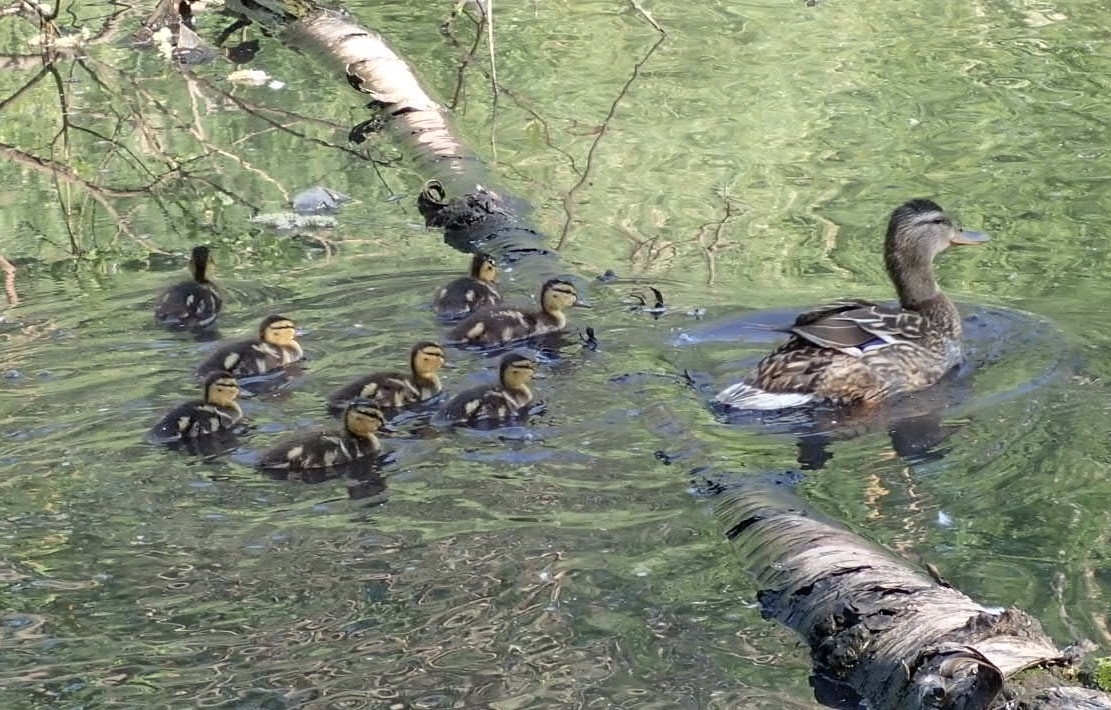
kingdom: Animalia
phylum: Chordata
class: Aves
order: Anseriformes
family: Anatidae
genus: Anas
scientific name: Anas platyrhynchos
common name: Mallard
